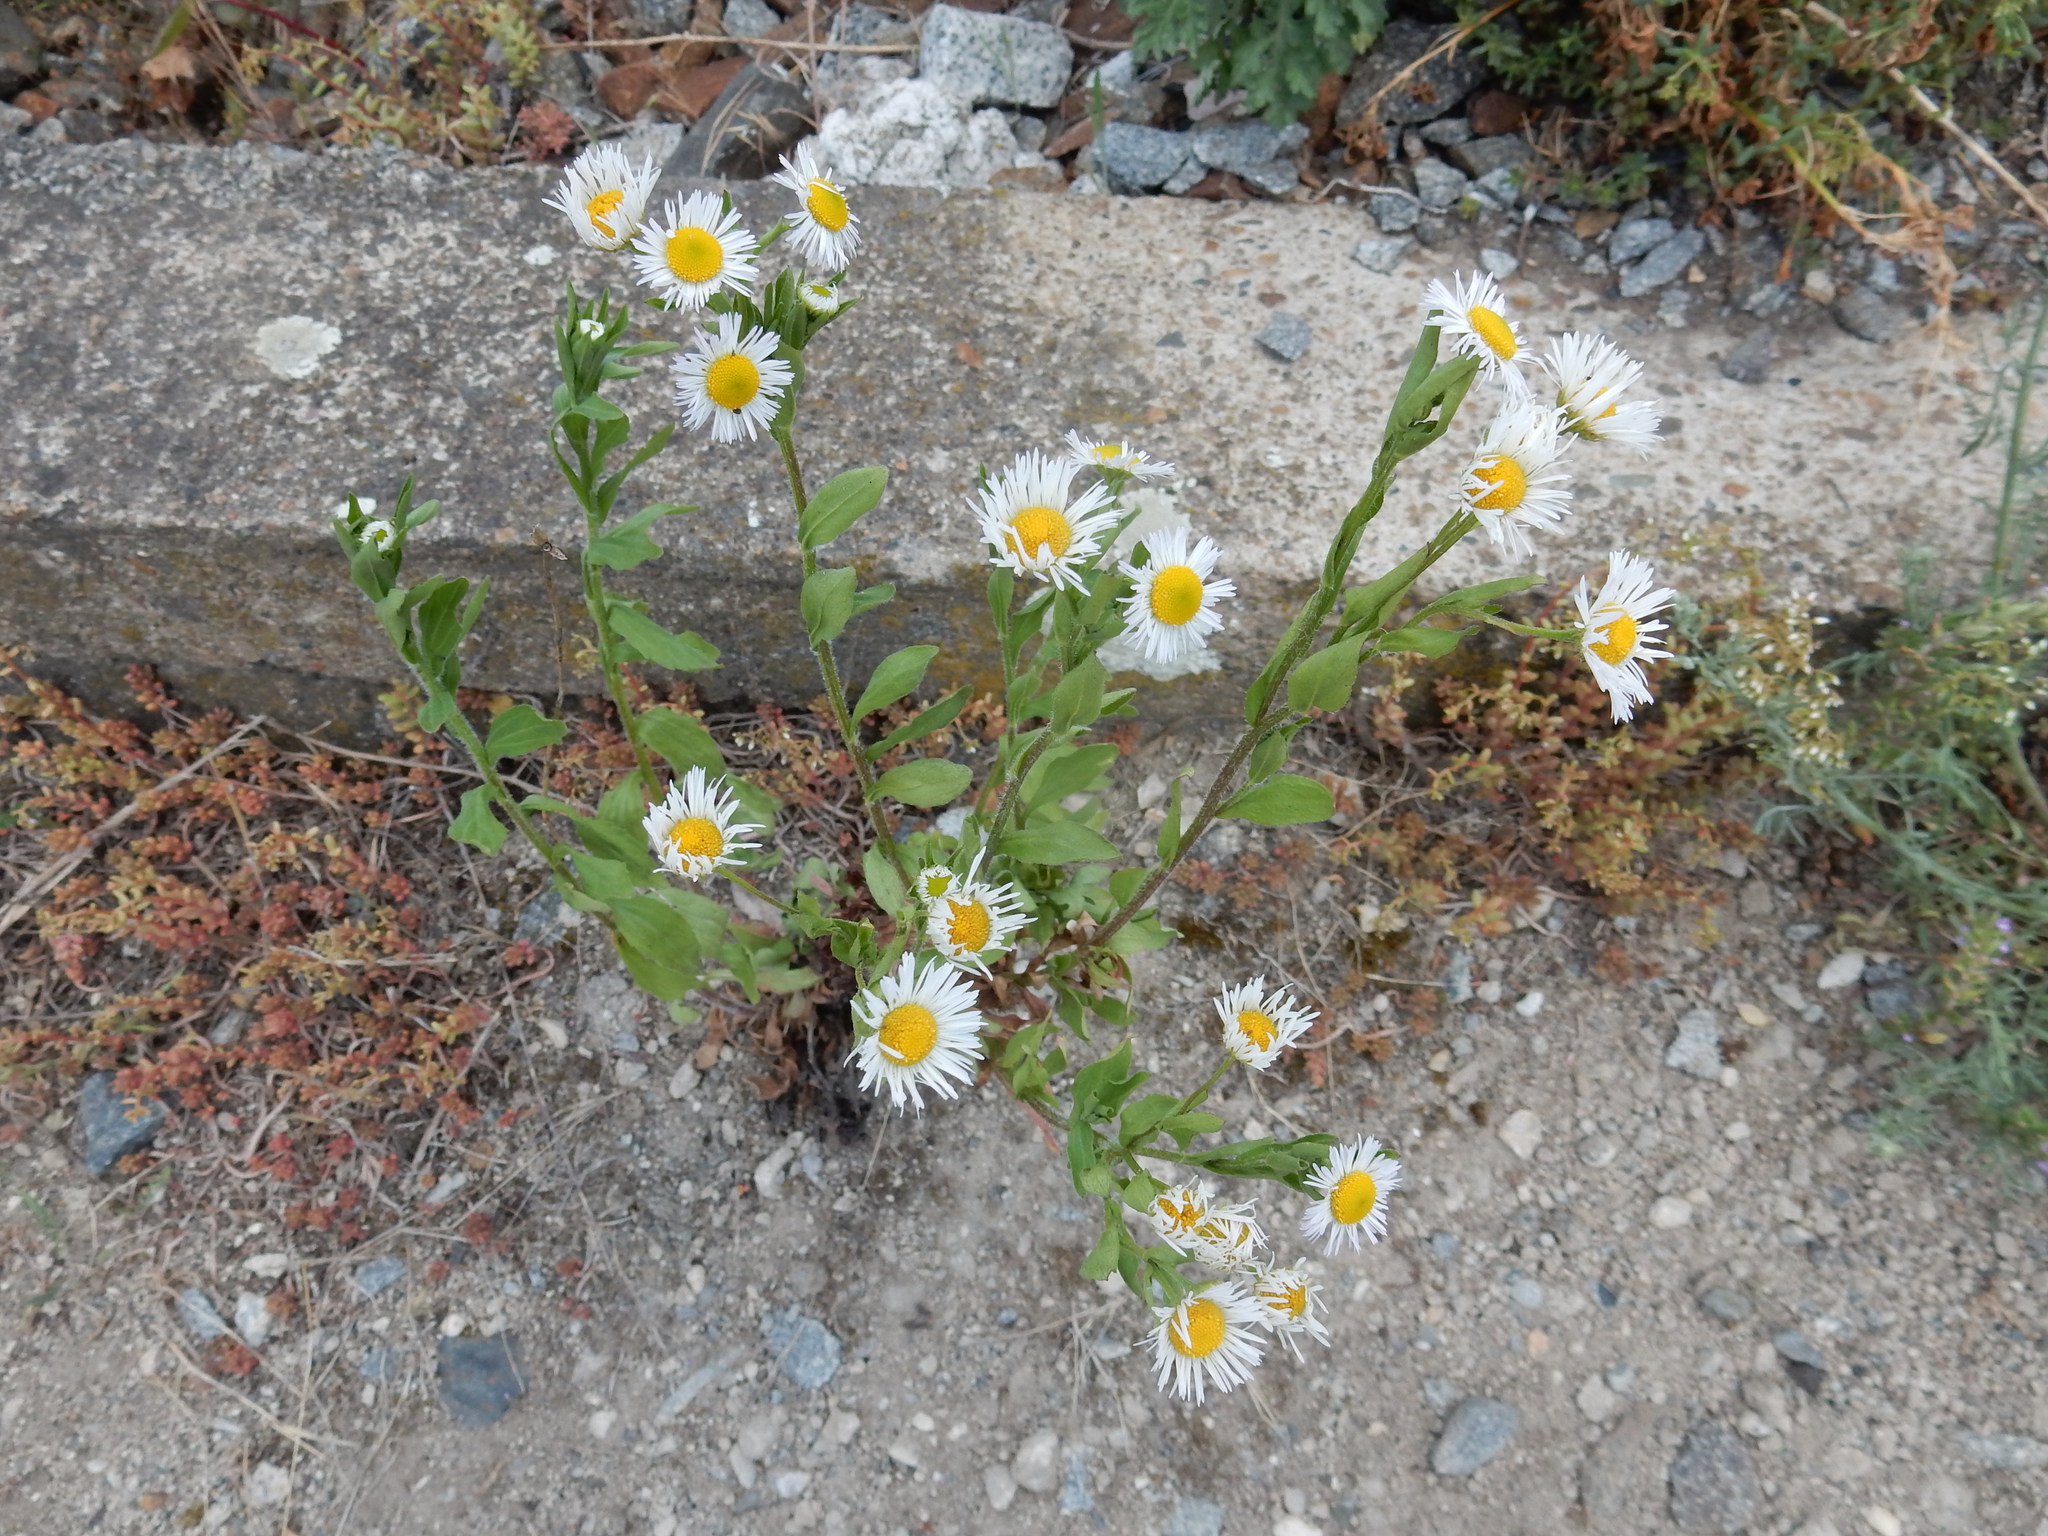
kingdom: Plantae
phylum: Tracheophyta
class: Magnoliopsida
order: Asterales
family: Asteraceae
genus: Erigeron
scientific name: Erigeron annuus
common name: Tall fleabane
